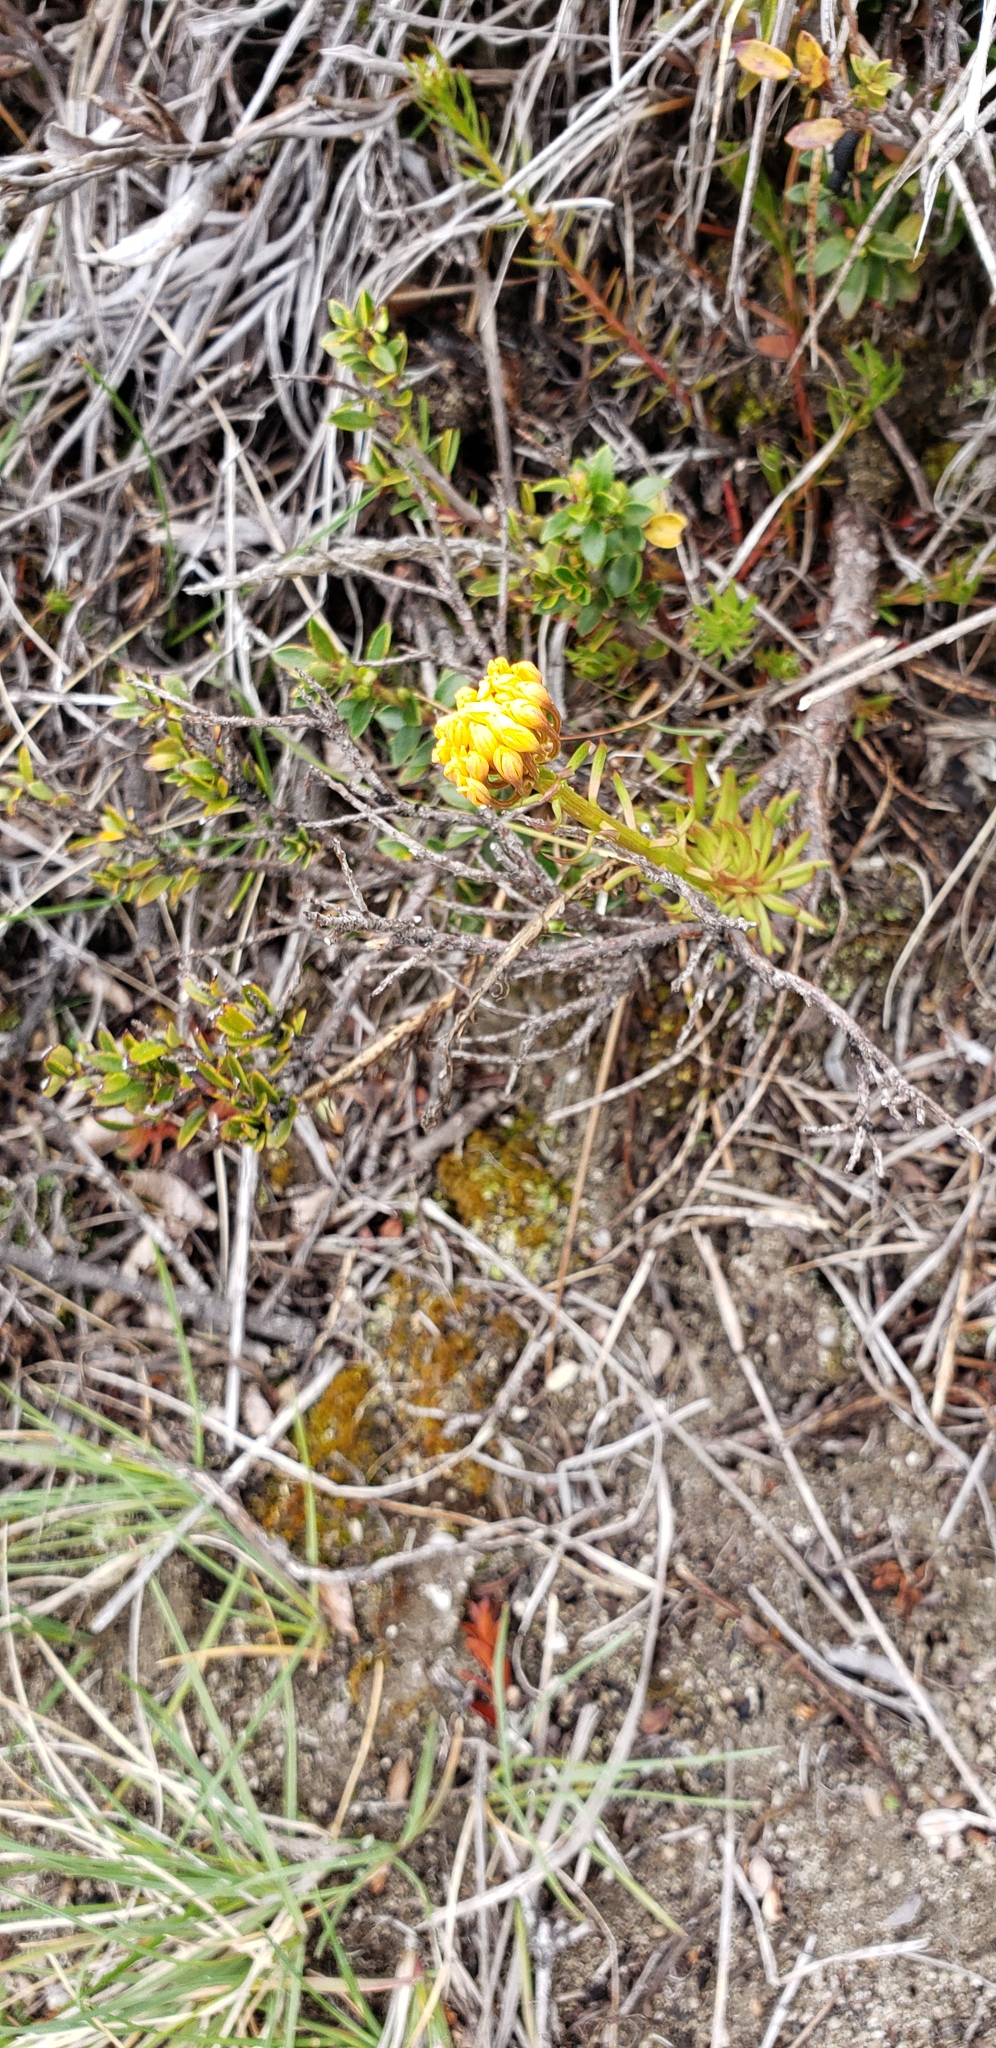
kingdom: Plantae
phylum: Tracheophyta
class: Magnoliopsida
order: Santalales
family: Schoepfiaceae
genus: Quinchamalium
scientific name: Quinchamalium chilense
